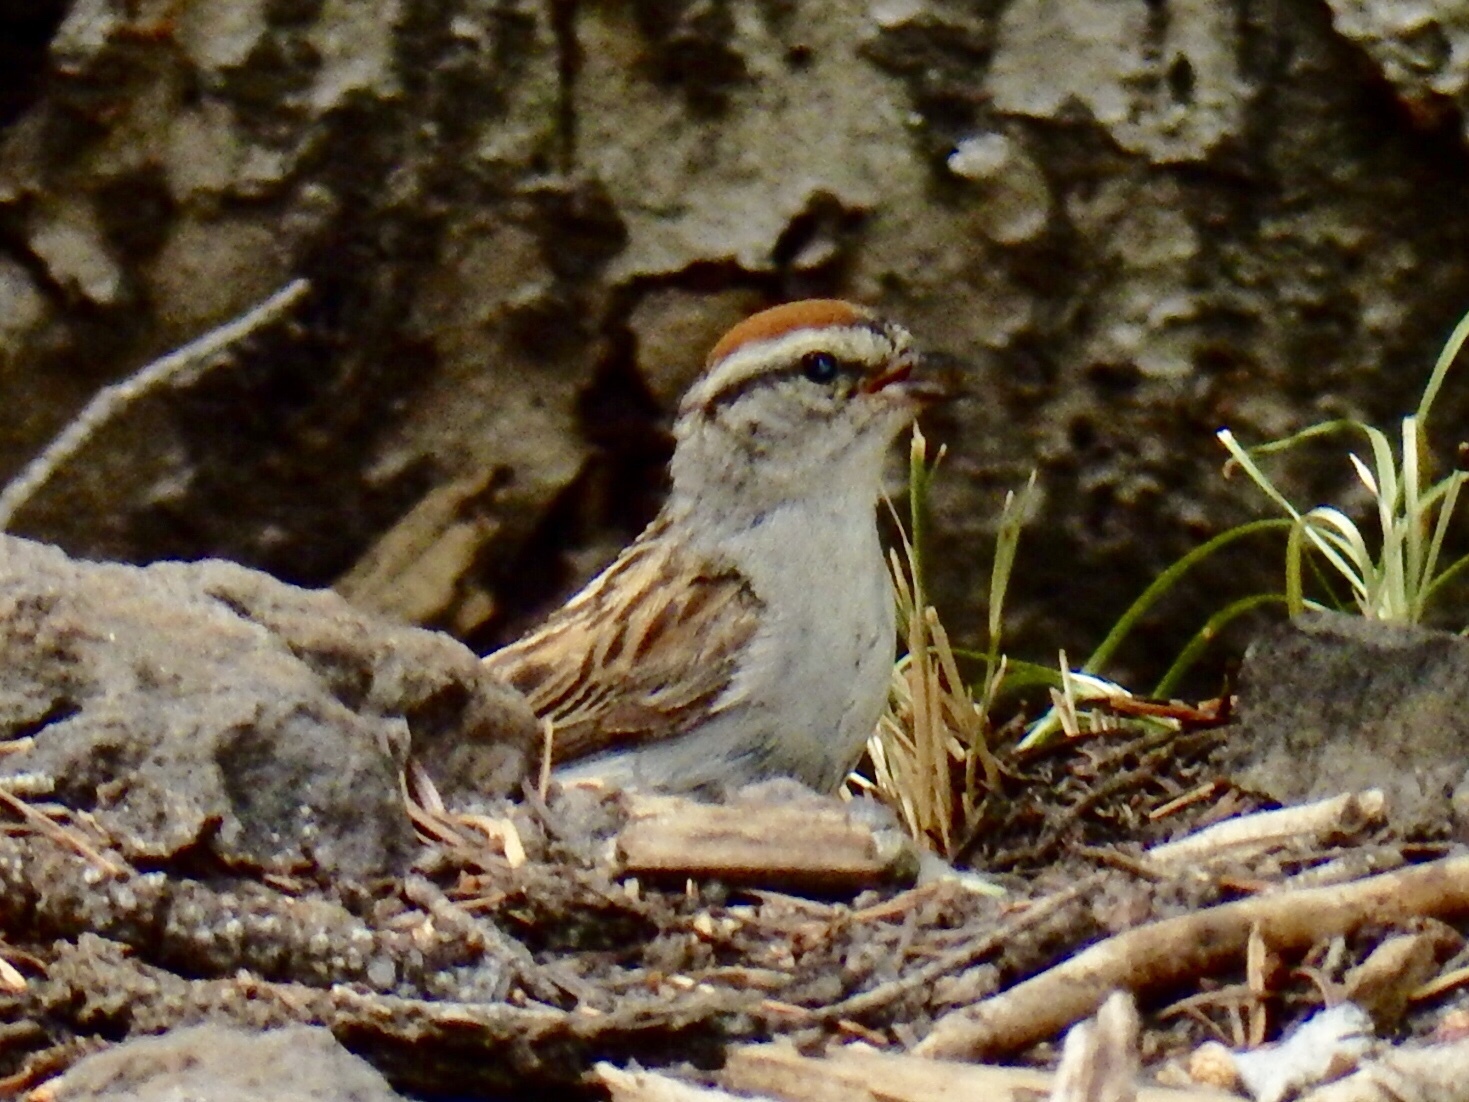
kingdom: Animalia
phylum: Chordata
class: Aves
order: Passeriformes
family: Passerellidae
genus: Spizella
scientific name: Spizella passerina
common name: Chipping sparrow
